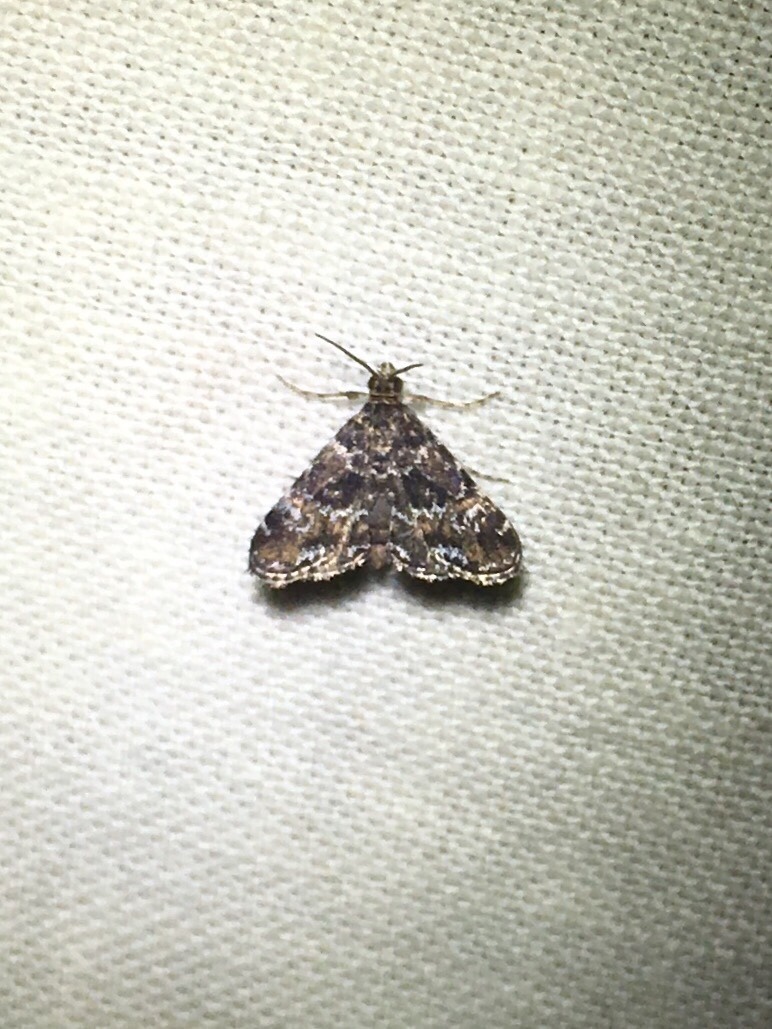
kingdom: Animalia
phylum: Arthropoda
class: Insecta
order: Lepidoptera
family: Crambidae
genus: Elophila
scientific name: Elophila obliteralis
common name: Waterlily leafcutter moth
